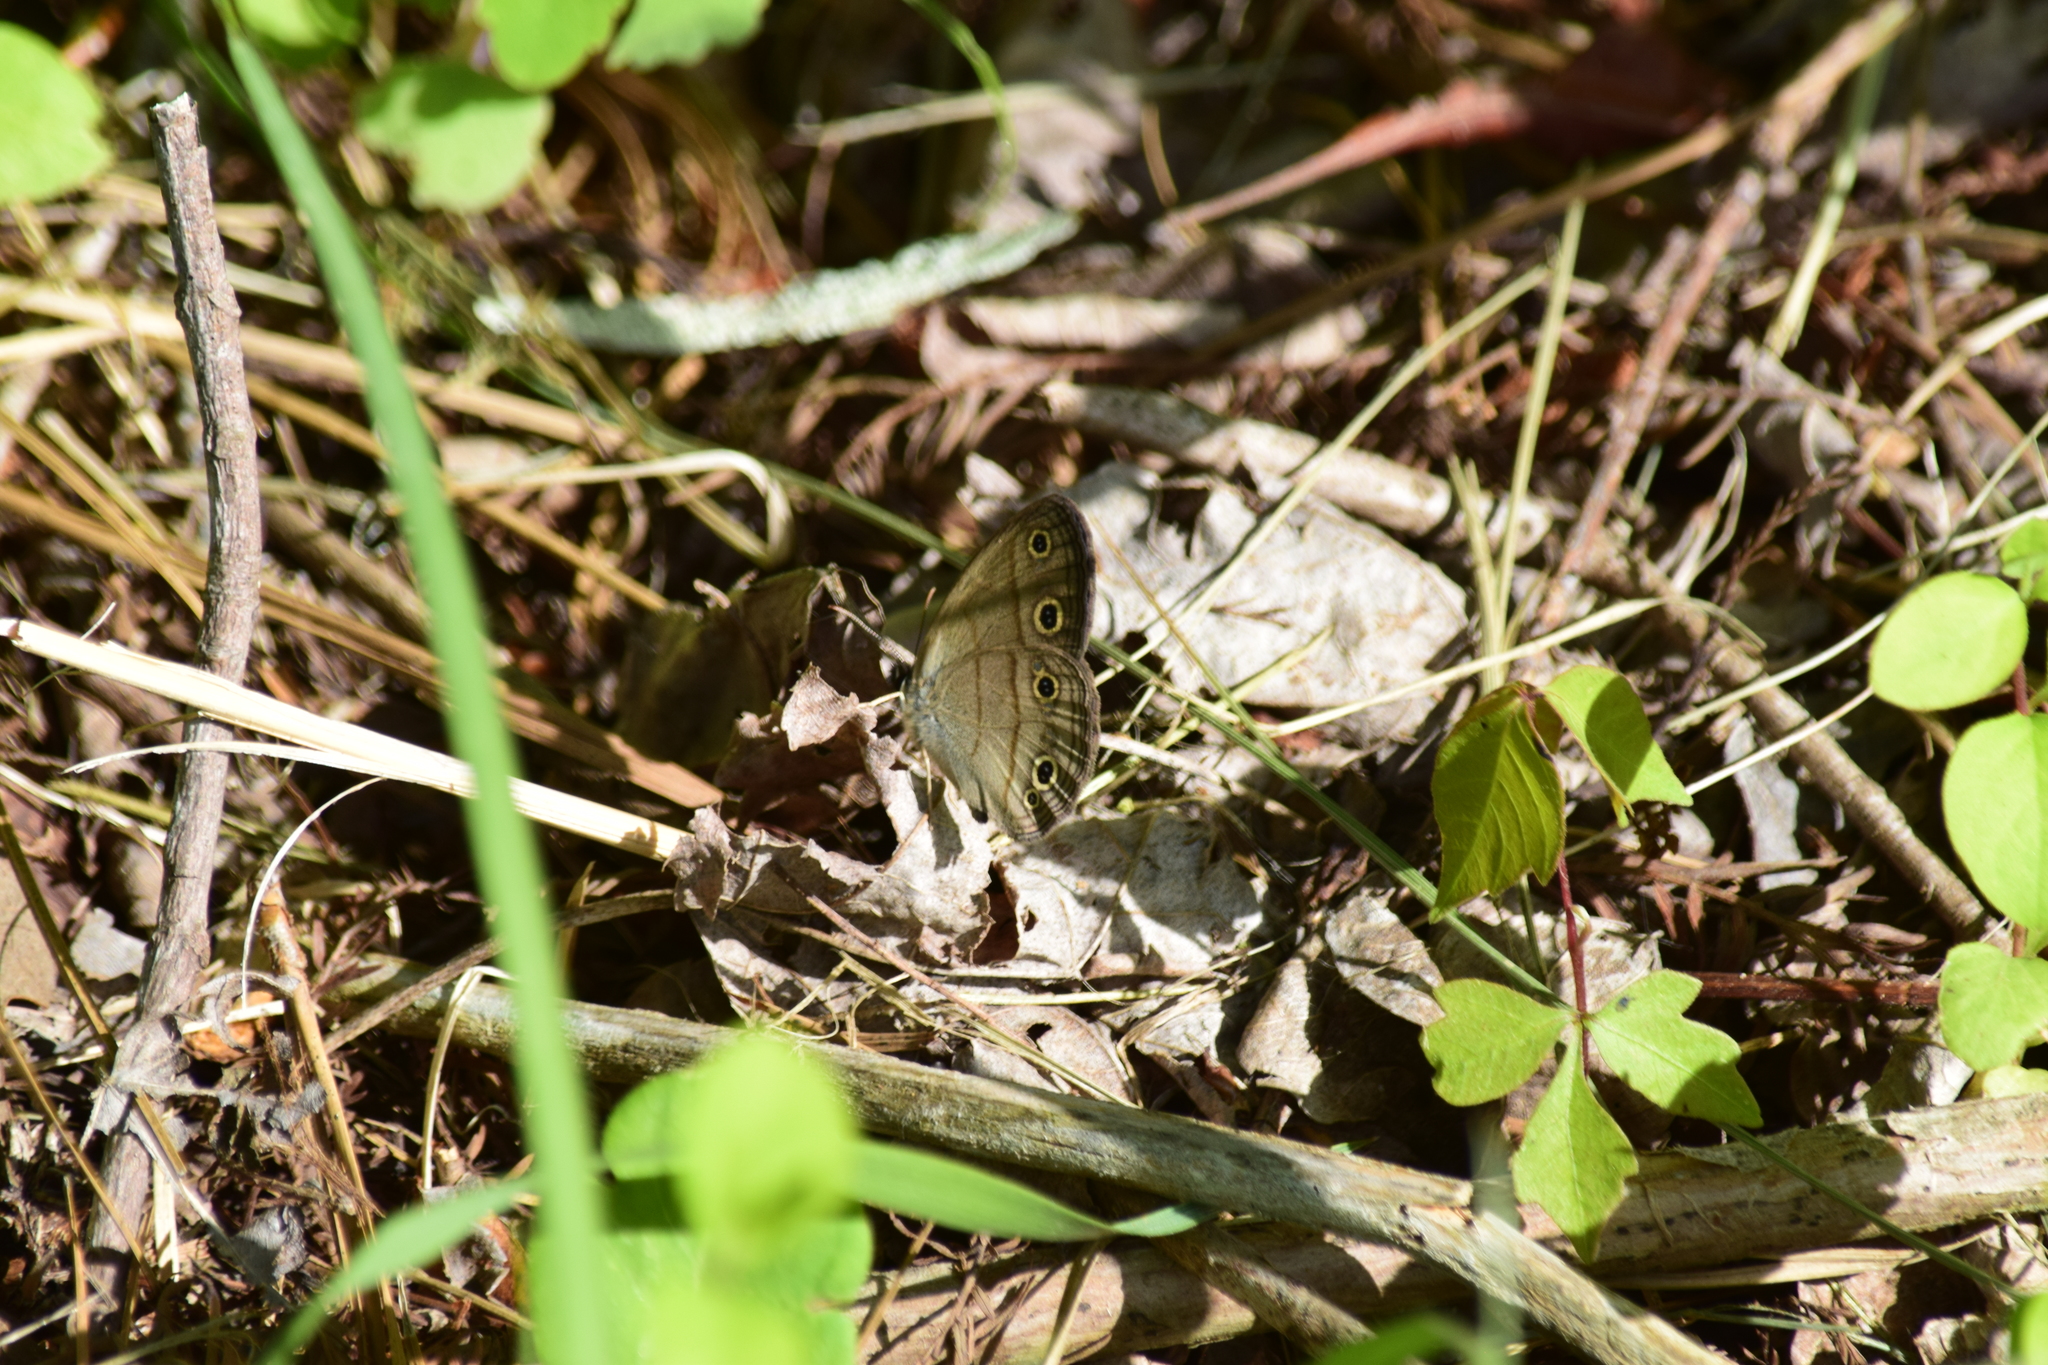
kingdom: Animalia
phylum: Arthropoda
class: Insecta
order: Lepidoptera
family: Nymphalidae
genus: Euptychia
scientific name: Euptychia cymela
